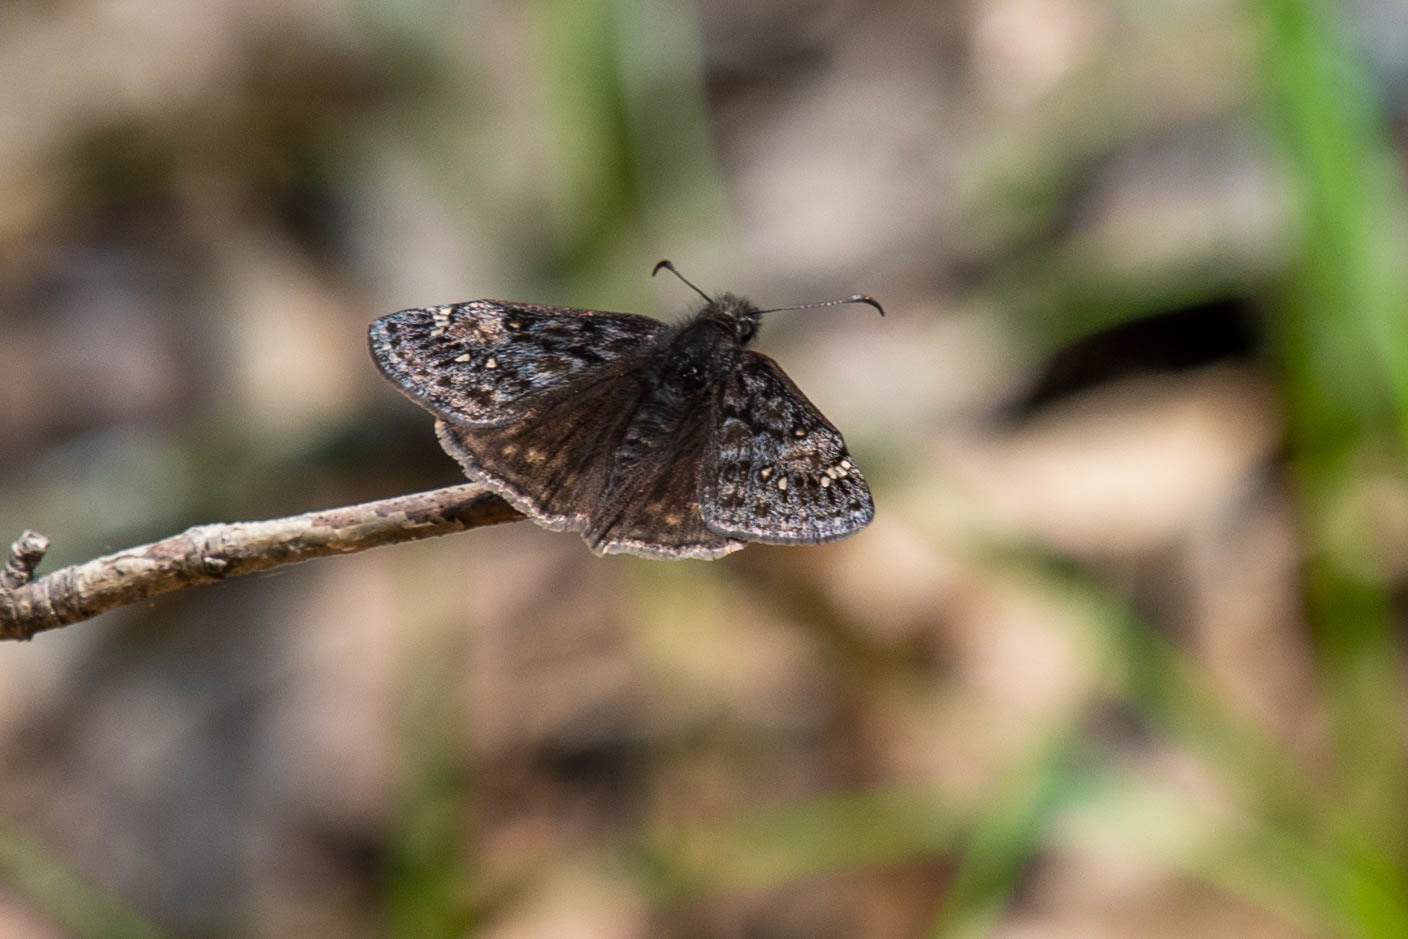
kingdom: Animalia
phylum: Arthropoda
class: Insecta
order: Lepidoptera
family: Hesperiidae
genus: Erynnis
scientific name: Erynnis juvenalis
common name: Juvenal's duskywing
